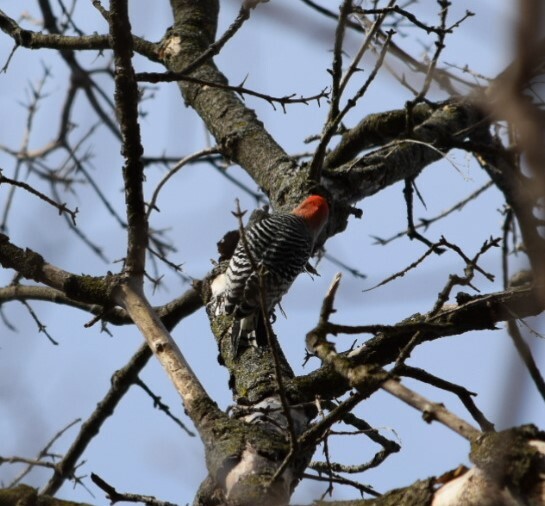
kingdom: Animalia
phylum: Chordata
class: Aves
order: Piciformes
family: Picidae
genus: Melanerpes
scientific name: Melanerpes carolinus
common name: Red-bellied woodpecker
